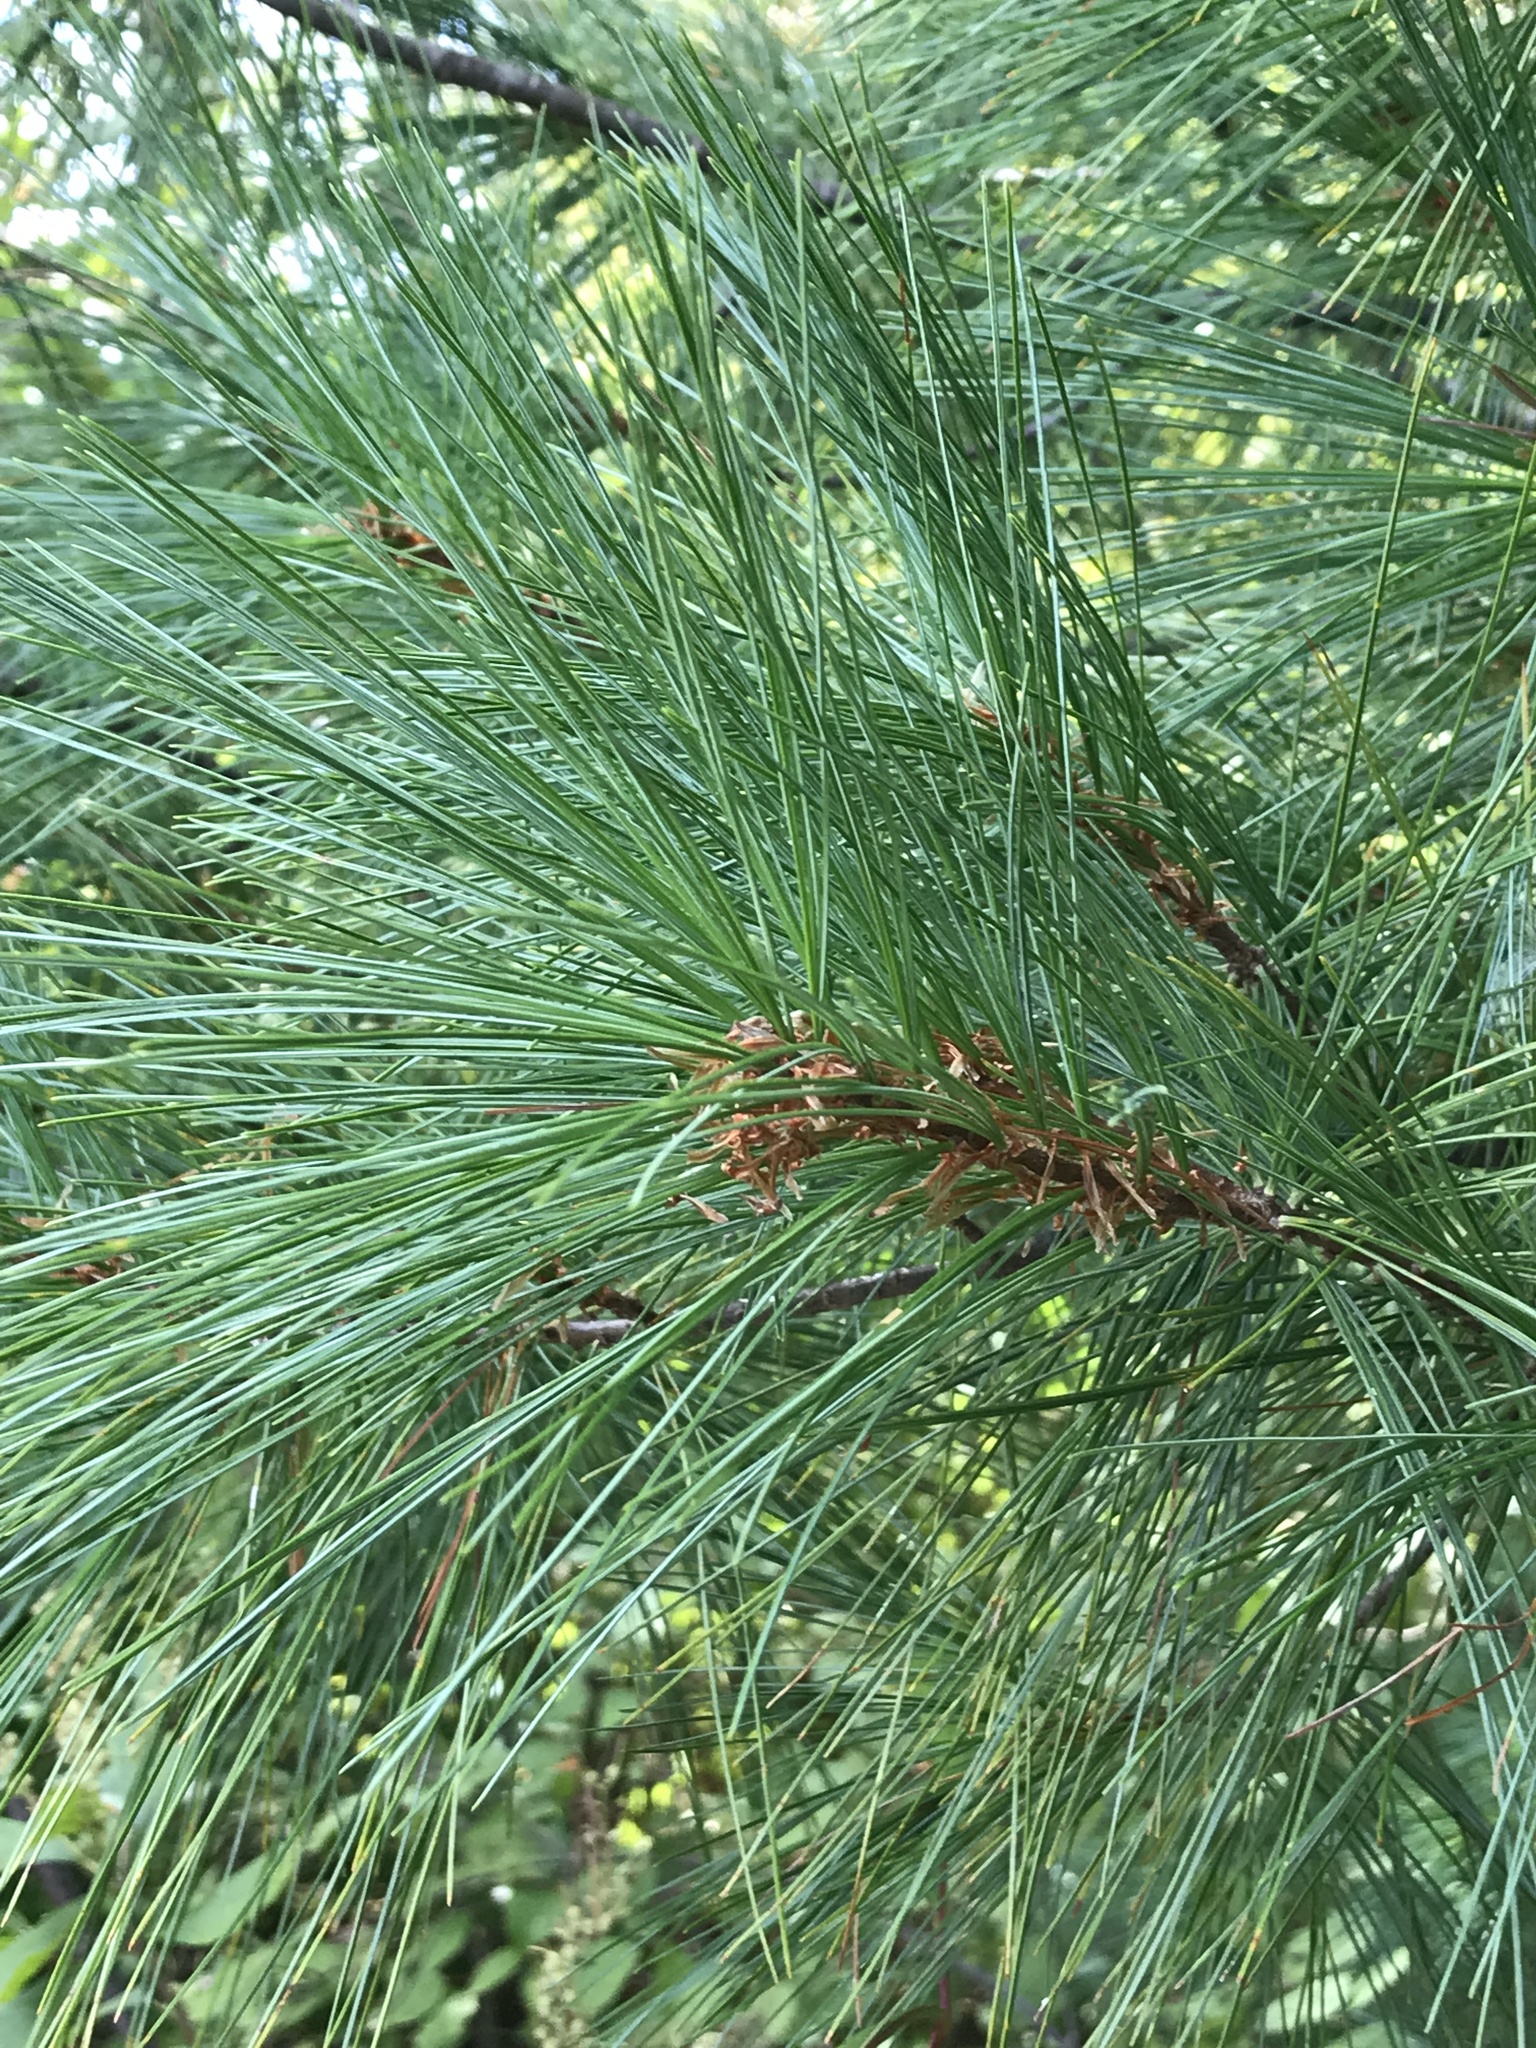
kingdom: Plantae
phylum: Tracheophyta
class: Pinopsida
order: Pinales
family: Pinaceae
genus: Pinus
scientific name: Pinus strobus
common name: Weymouth pine
